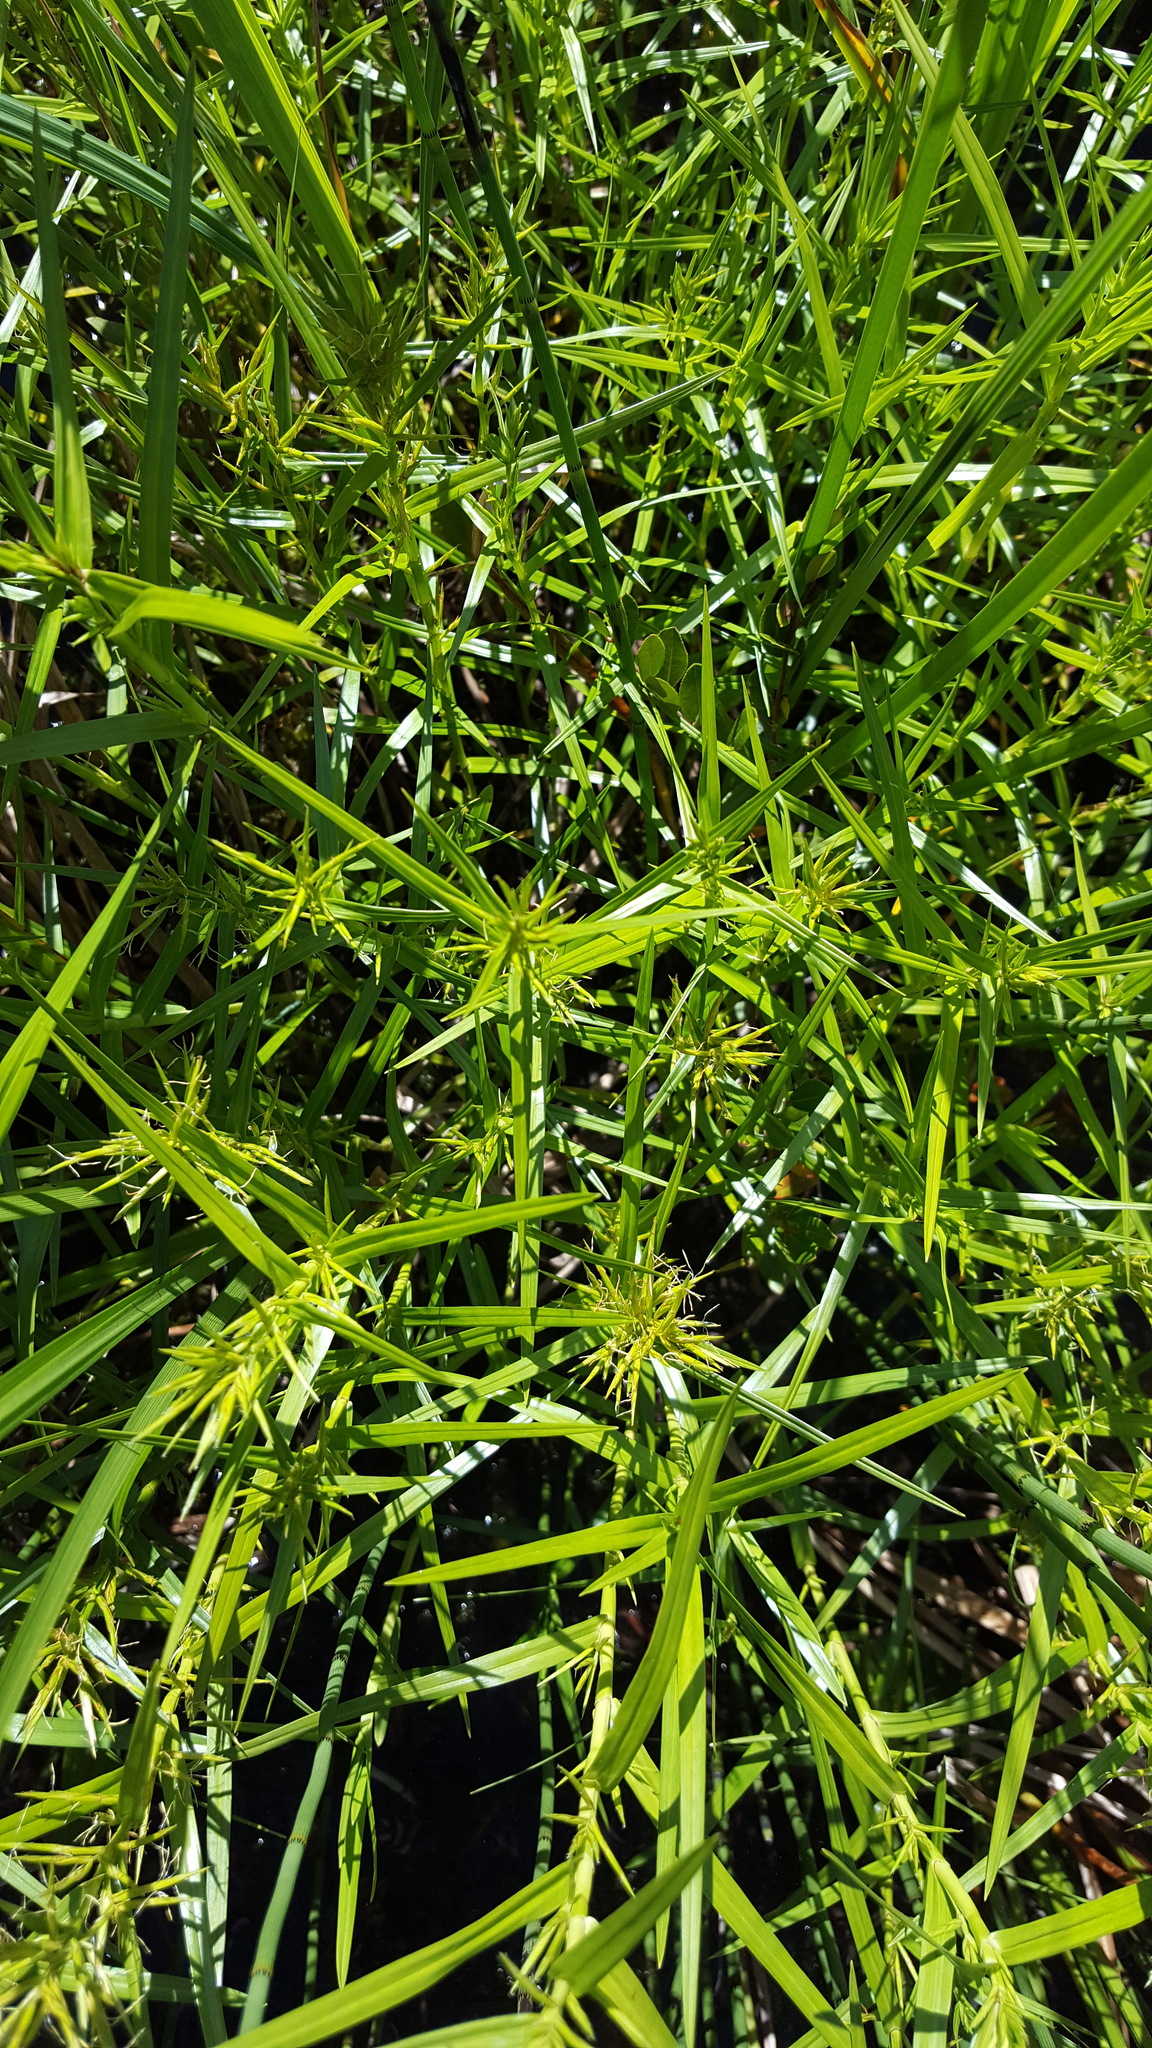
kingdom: Plantae
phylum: Tracheophyta
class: Liliopsida
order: Poales
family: Cyperaceae
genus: Dulichium
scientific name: Dulichium arundinaceum
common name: Three-way sedge
